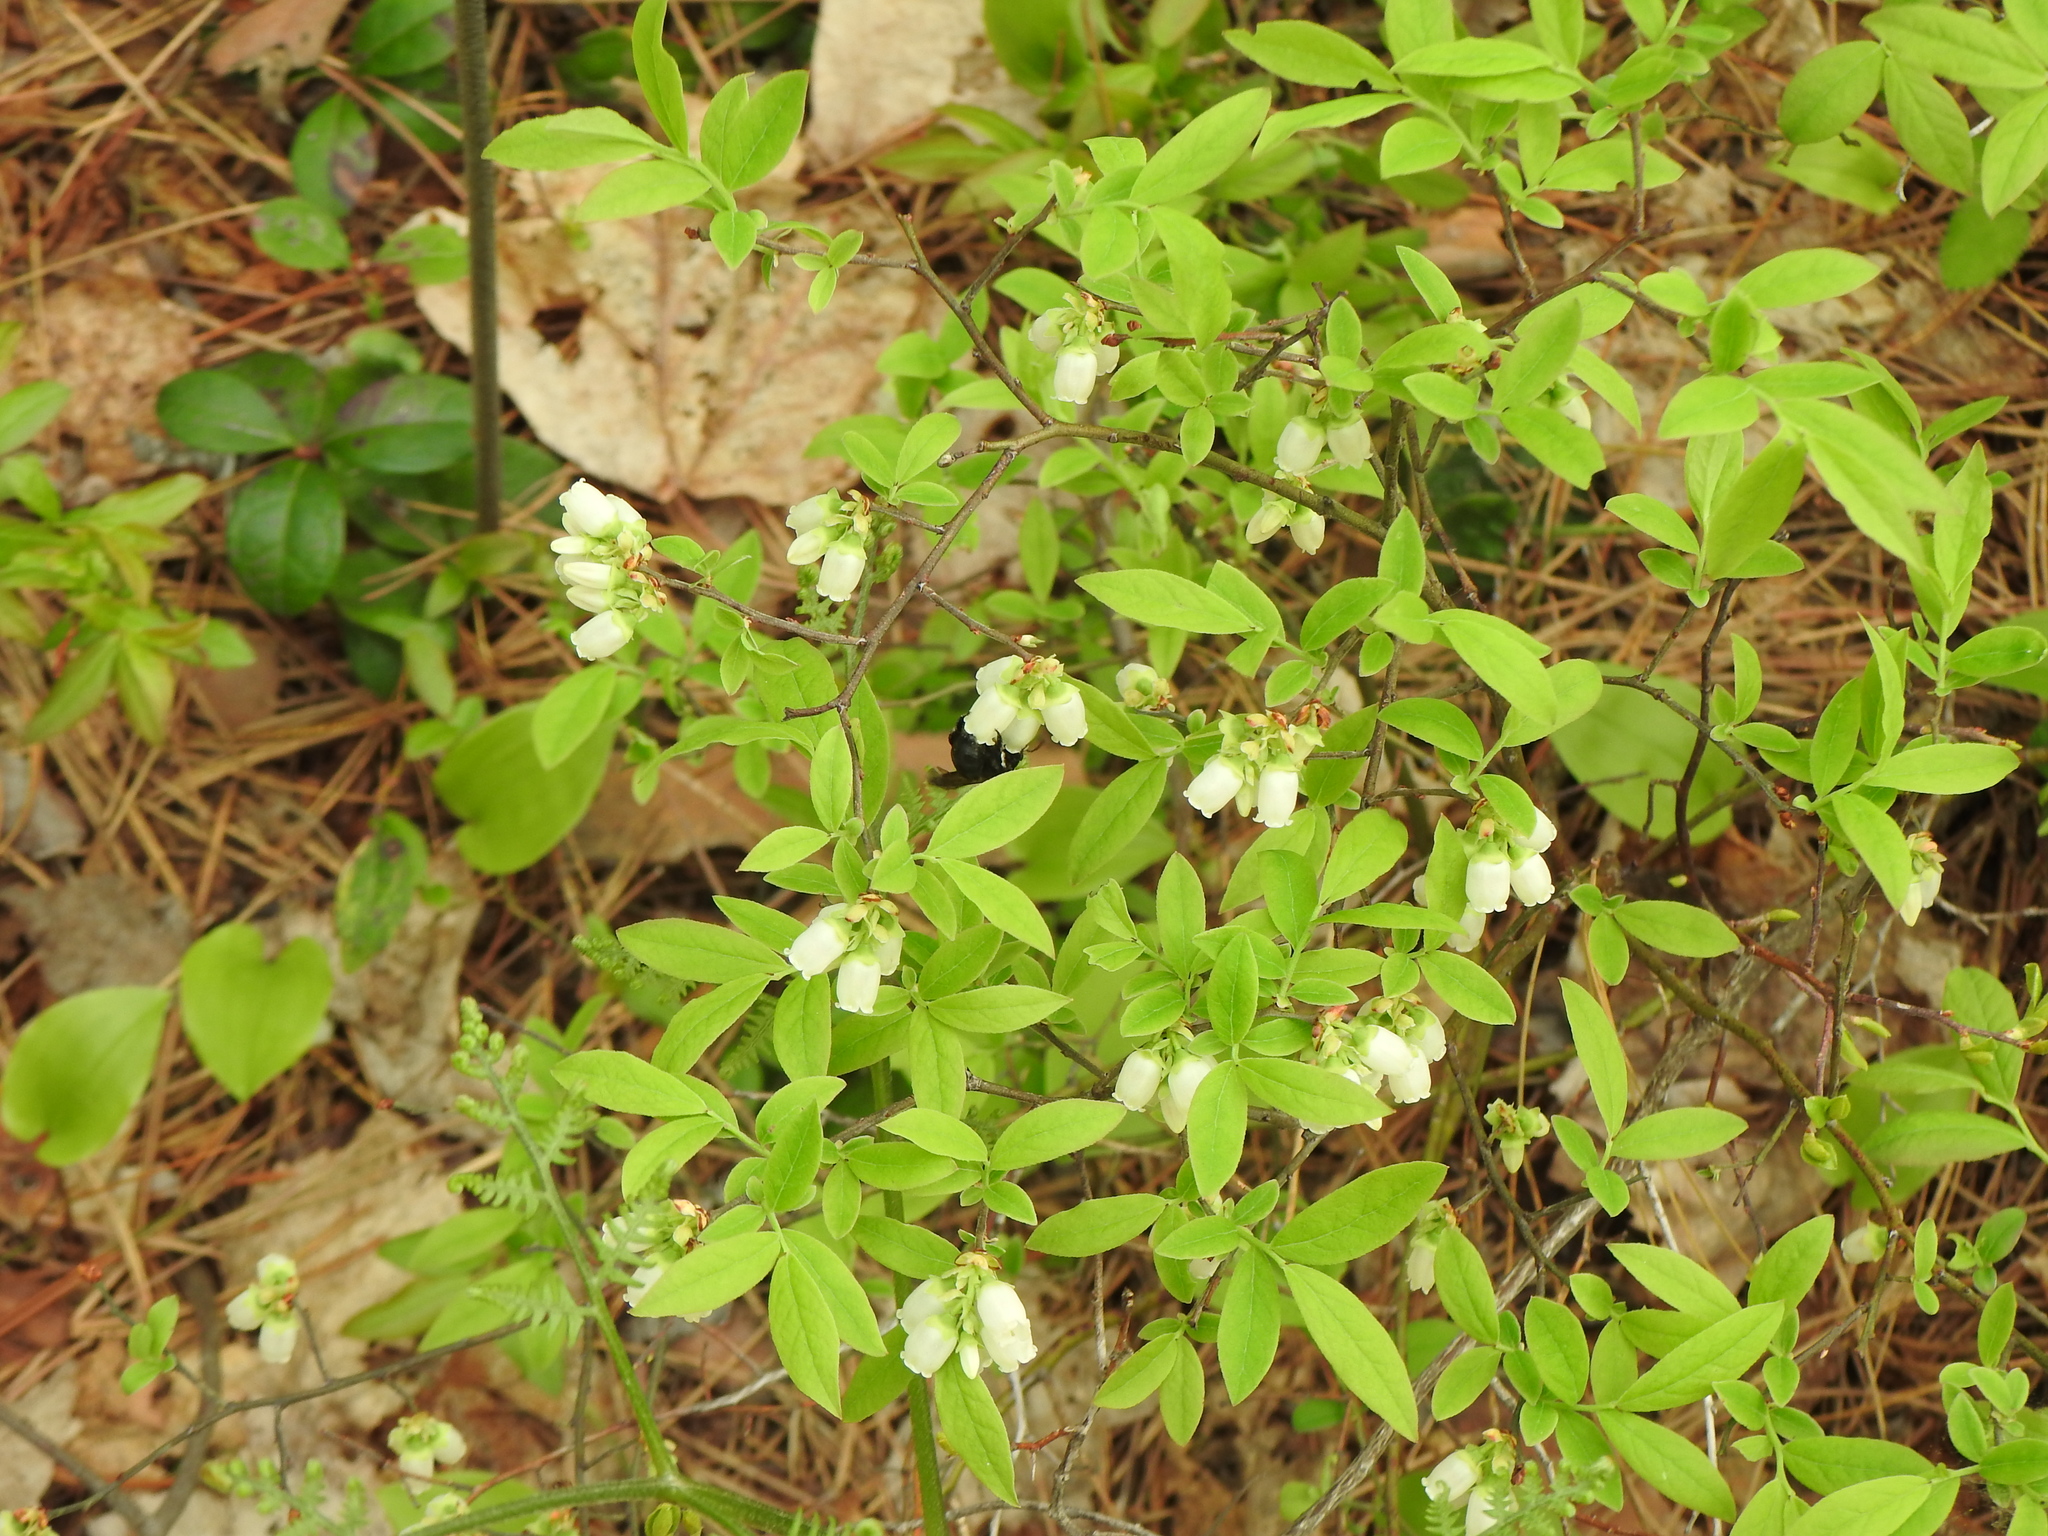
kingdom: Plantae
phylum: Tracheophyta
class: Magnoliopsida
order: Ericales
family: Ericaceae
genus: Vaccinium
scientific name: Vaccinium angustifolium
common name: Early lowbush blueberry
